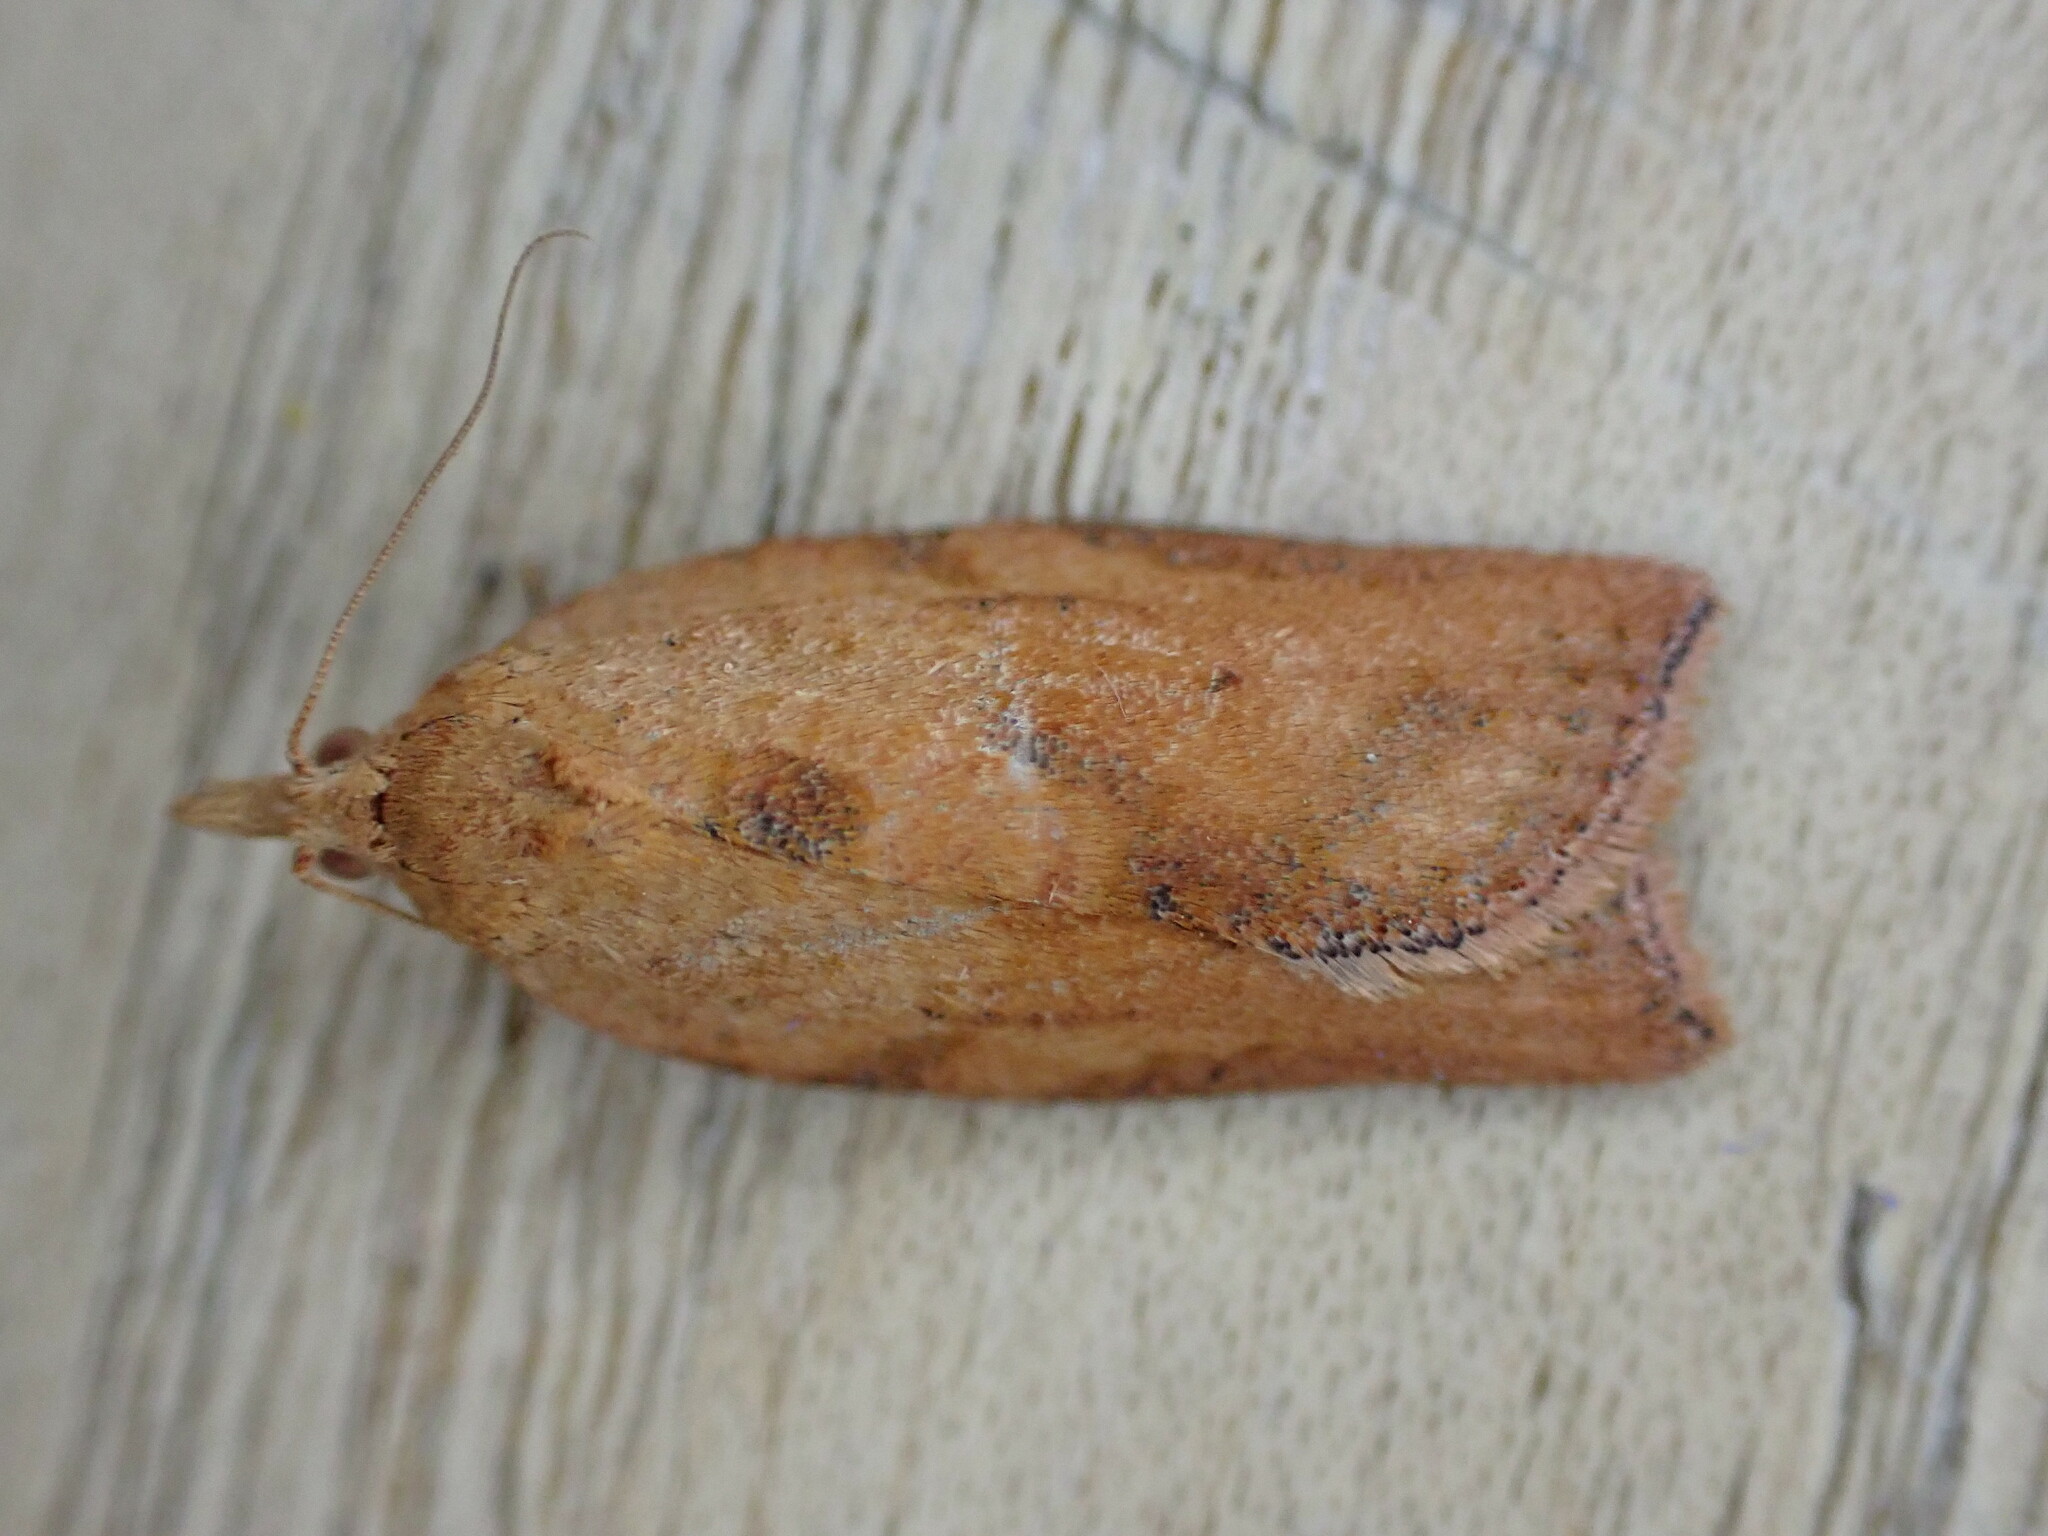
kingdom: Animalia
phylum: Arthropoda
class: Insecta
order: Lepidoptera
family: Tortricidae
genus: Epiphyas
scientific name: Epiphyas postvittana
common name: Light brown apple moth
